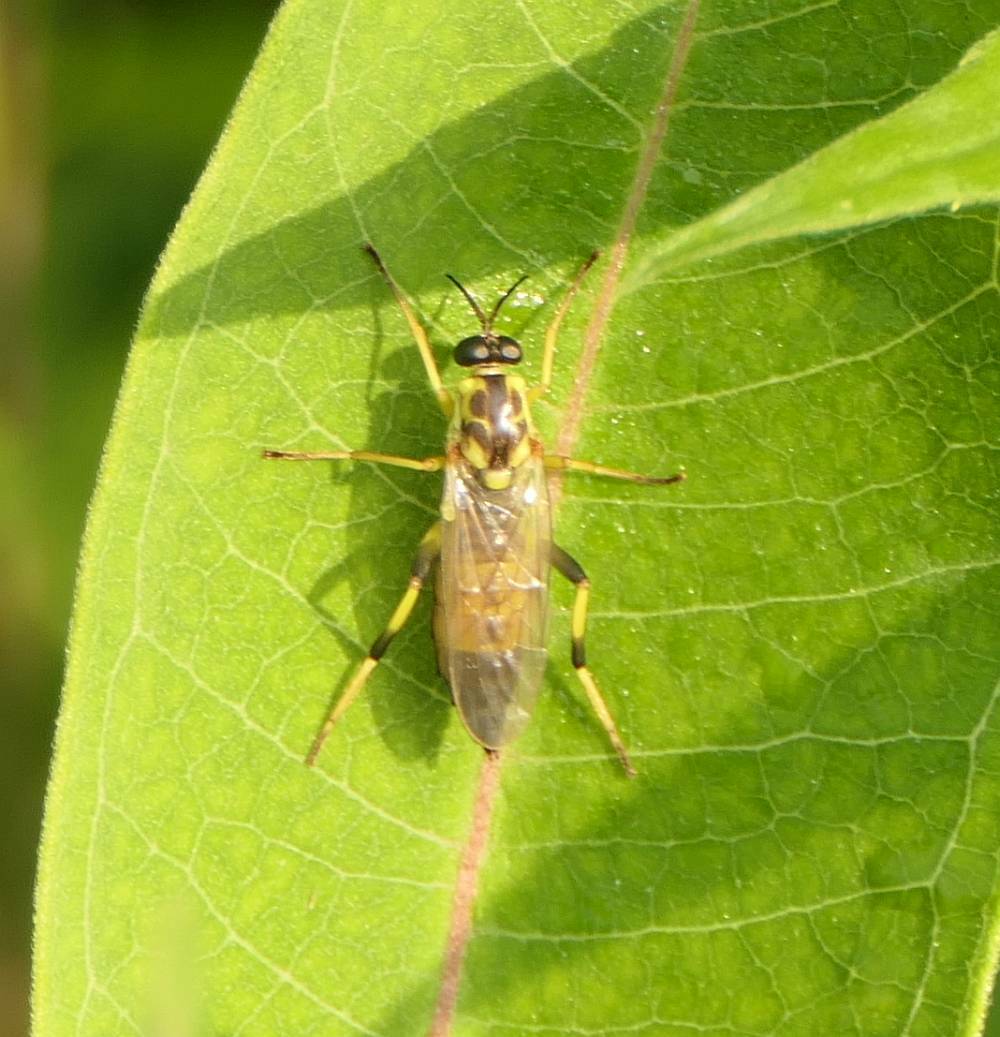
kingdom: Animalia
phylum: Arthropoda
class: Insecta
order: Diptera
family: Xylomyidae
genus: Xylomya
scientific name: Xylomya terminalis
